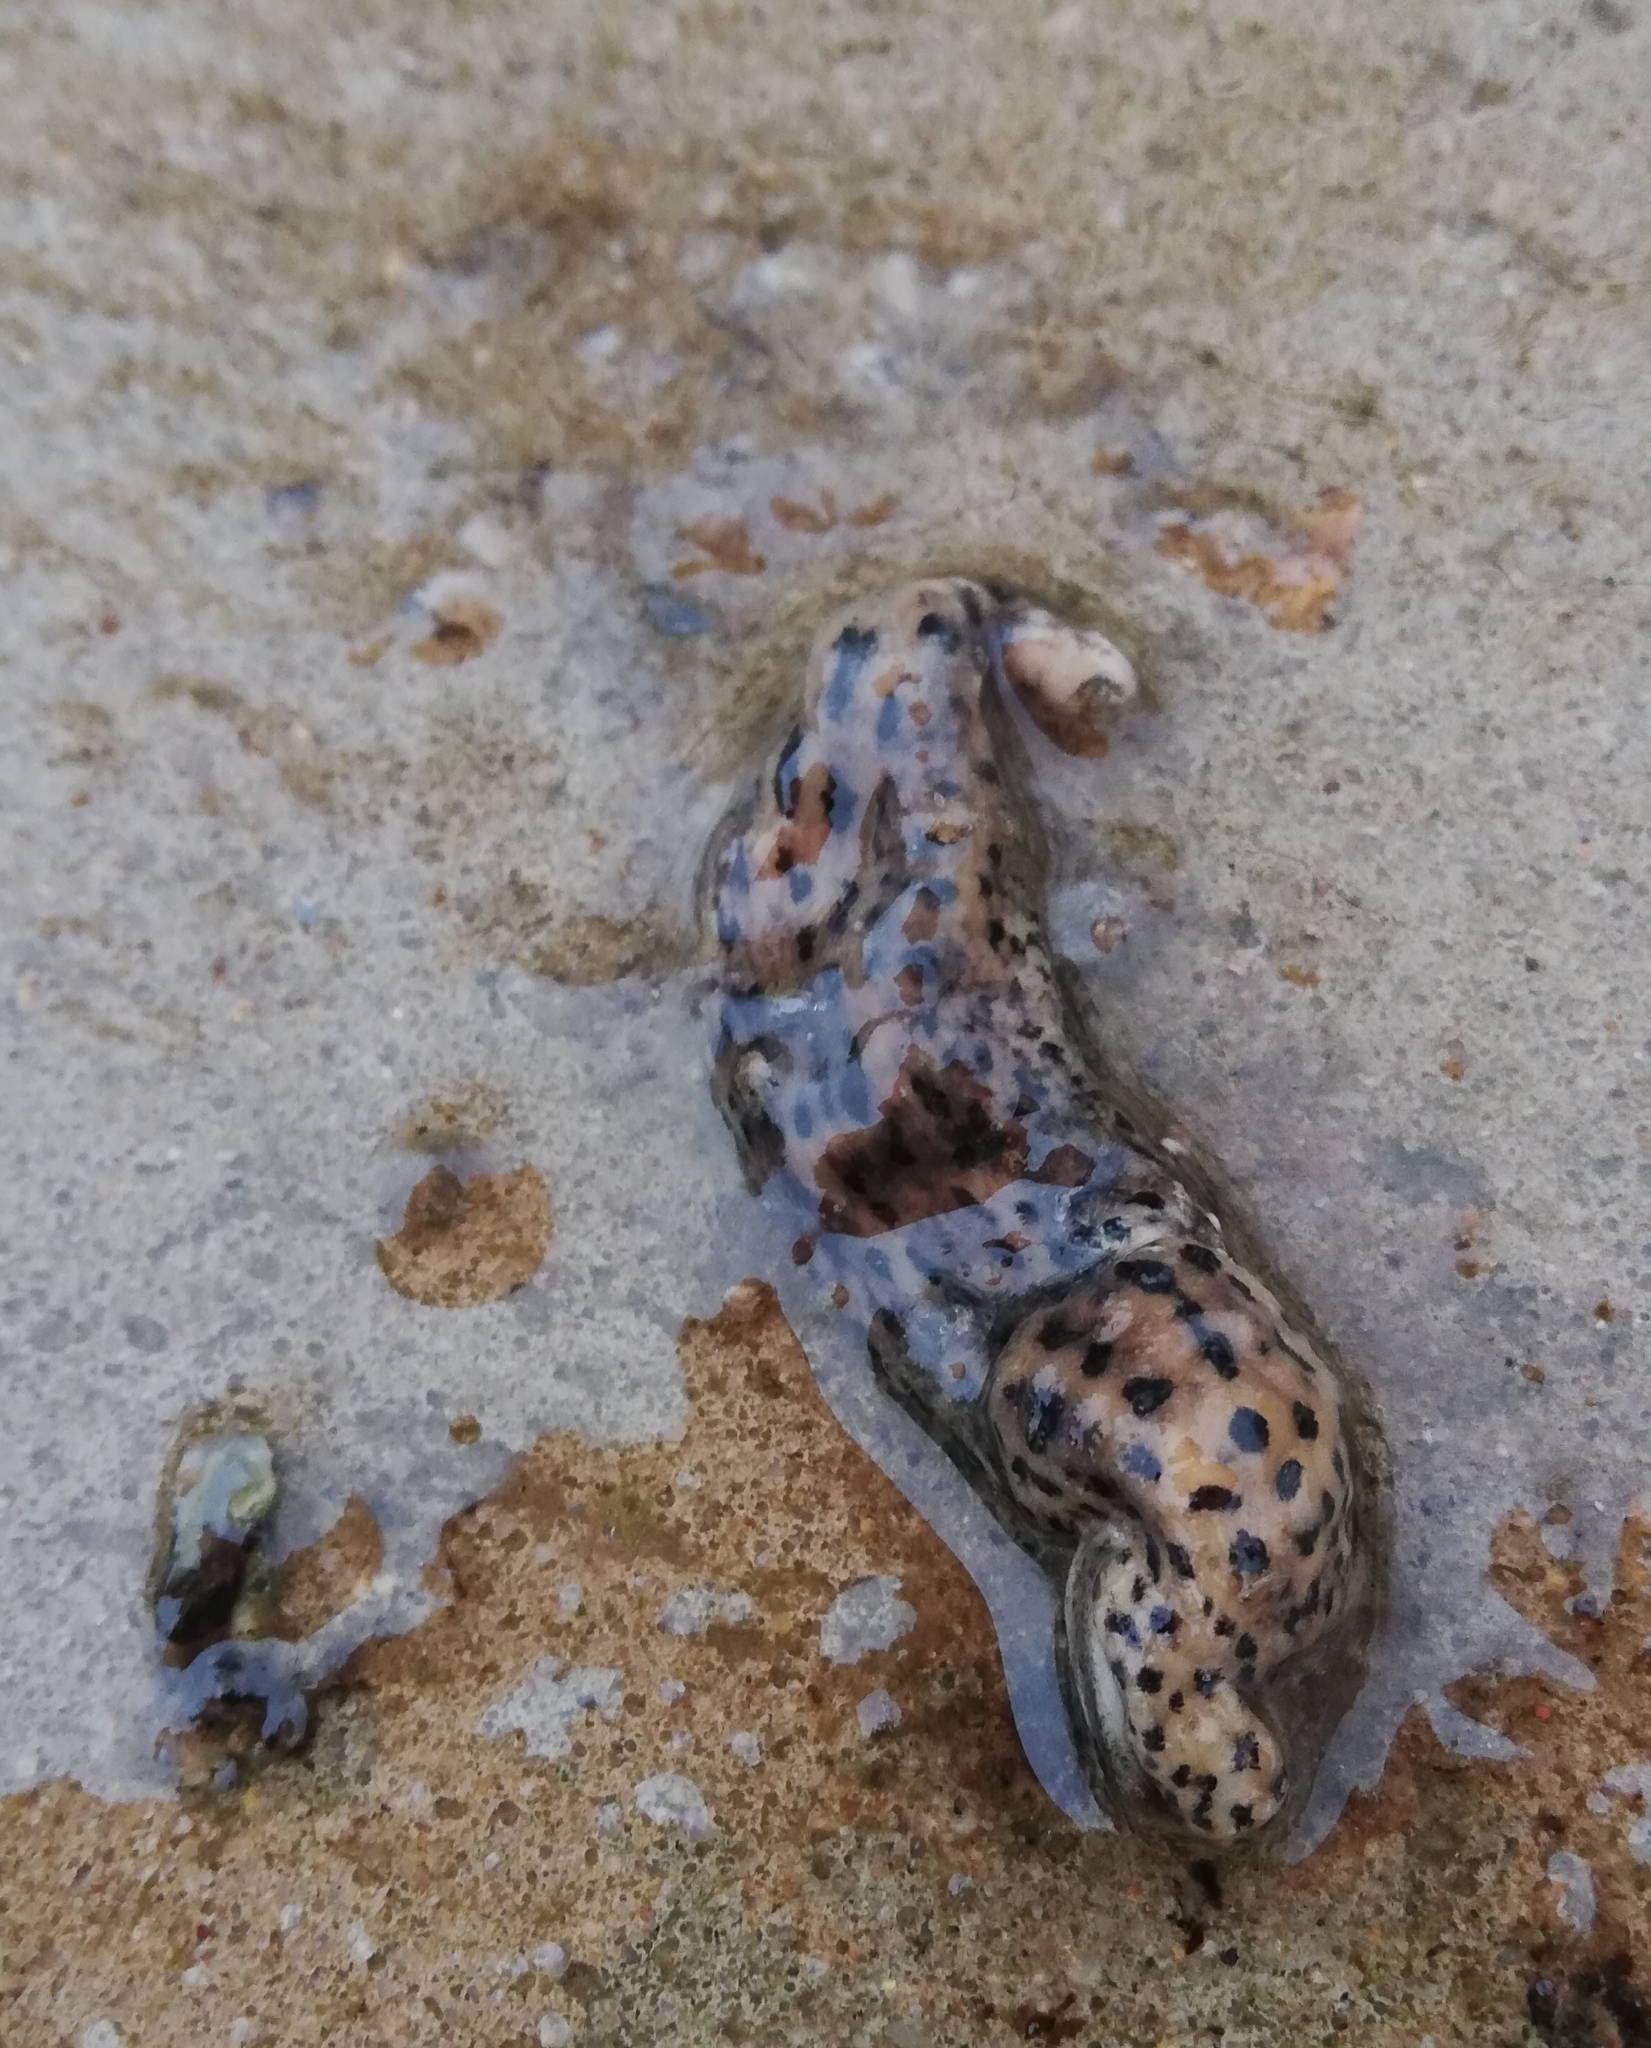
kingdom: Animalia
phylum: Mollusca
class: Gastropoda
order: Stylommatophora
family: Limacidae
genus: Limax
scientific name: Limax maximus
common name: Great grey slug
